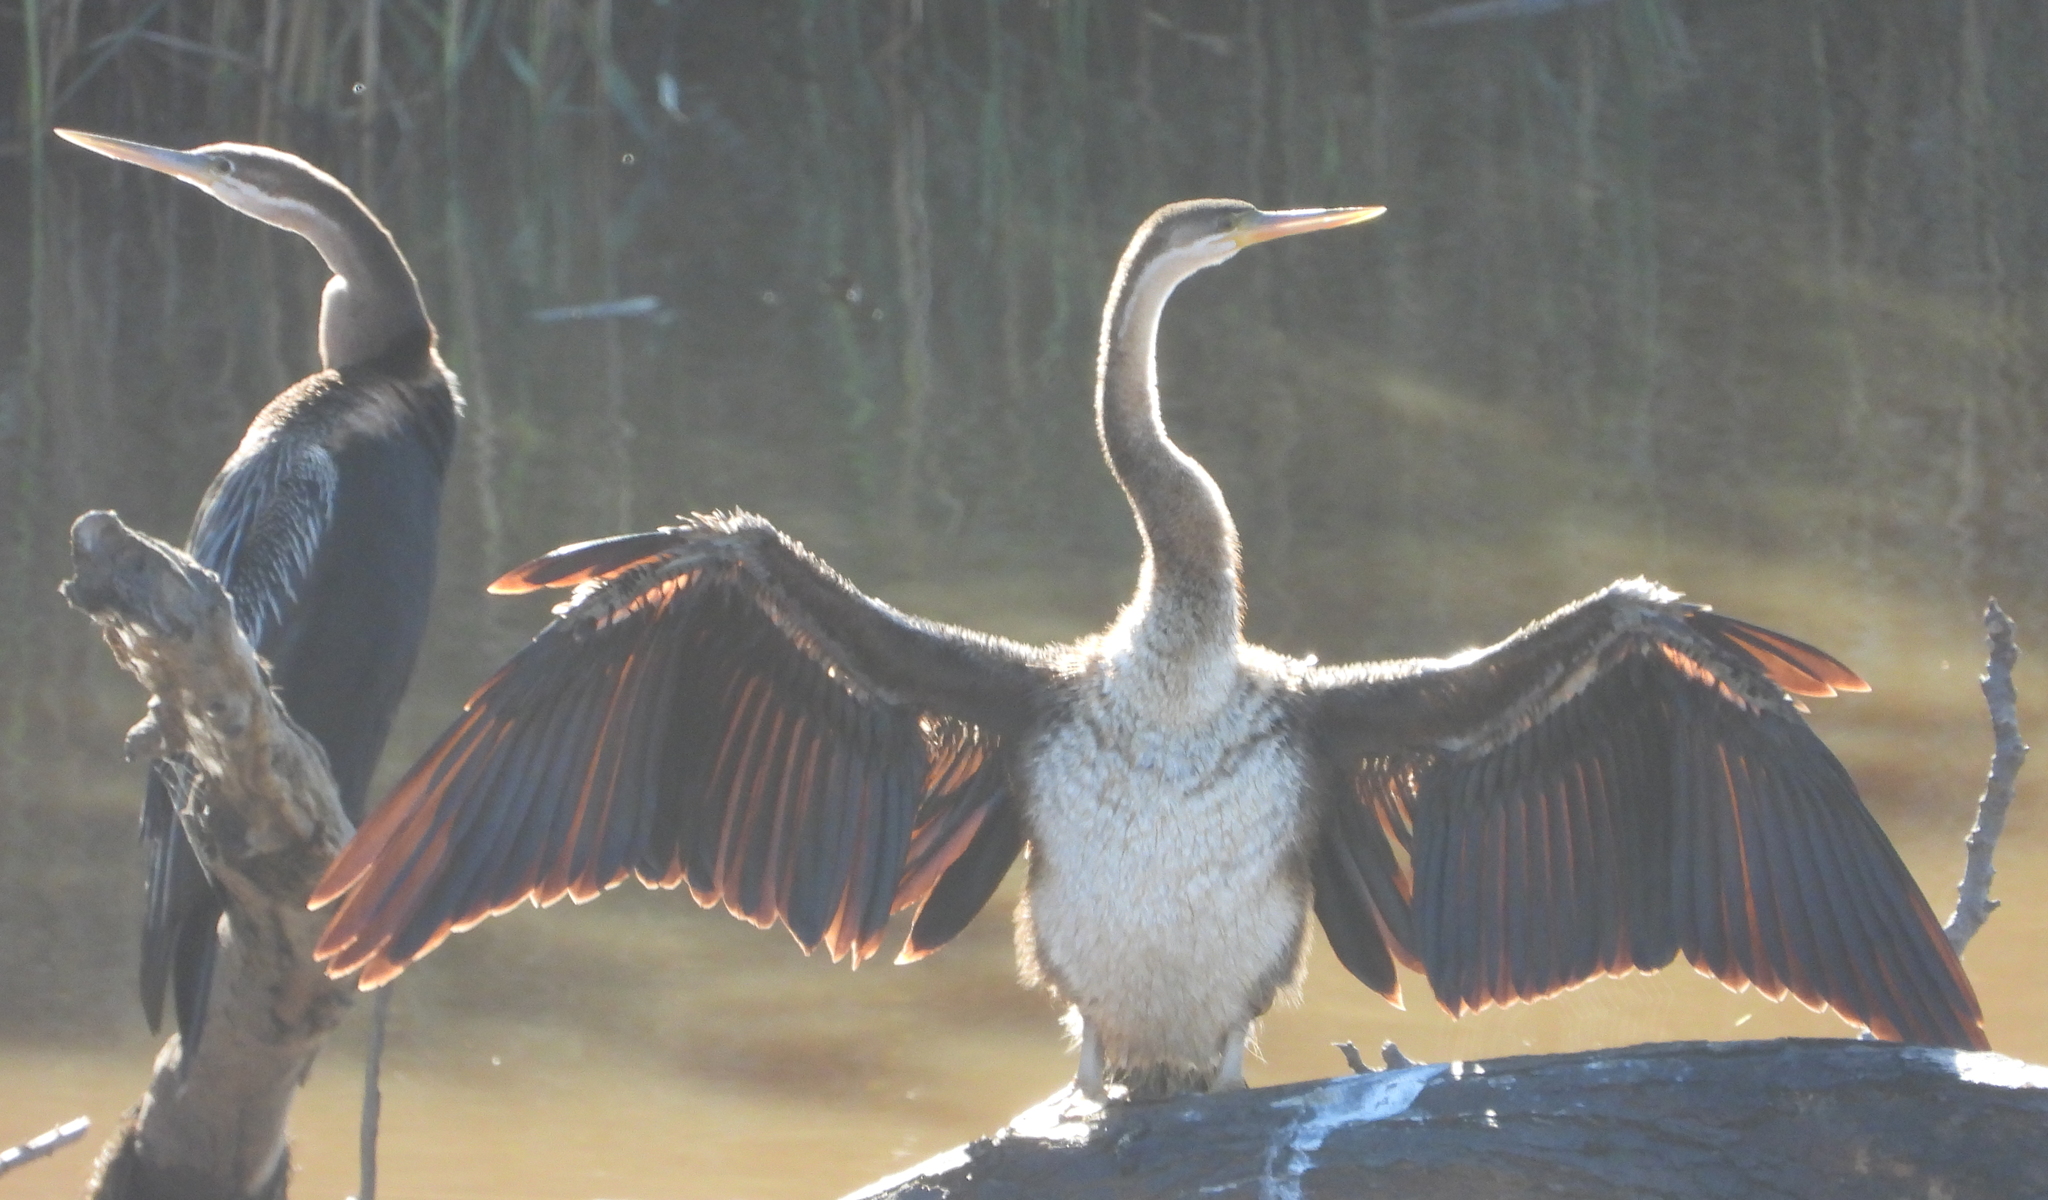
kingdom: Animalia
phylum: Chordata
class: Aves
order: Suliformes
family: Anhingidae
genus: Anhinga
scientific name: Anhinga rufa
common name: African darter
